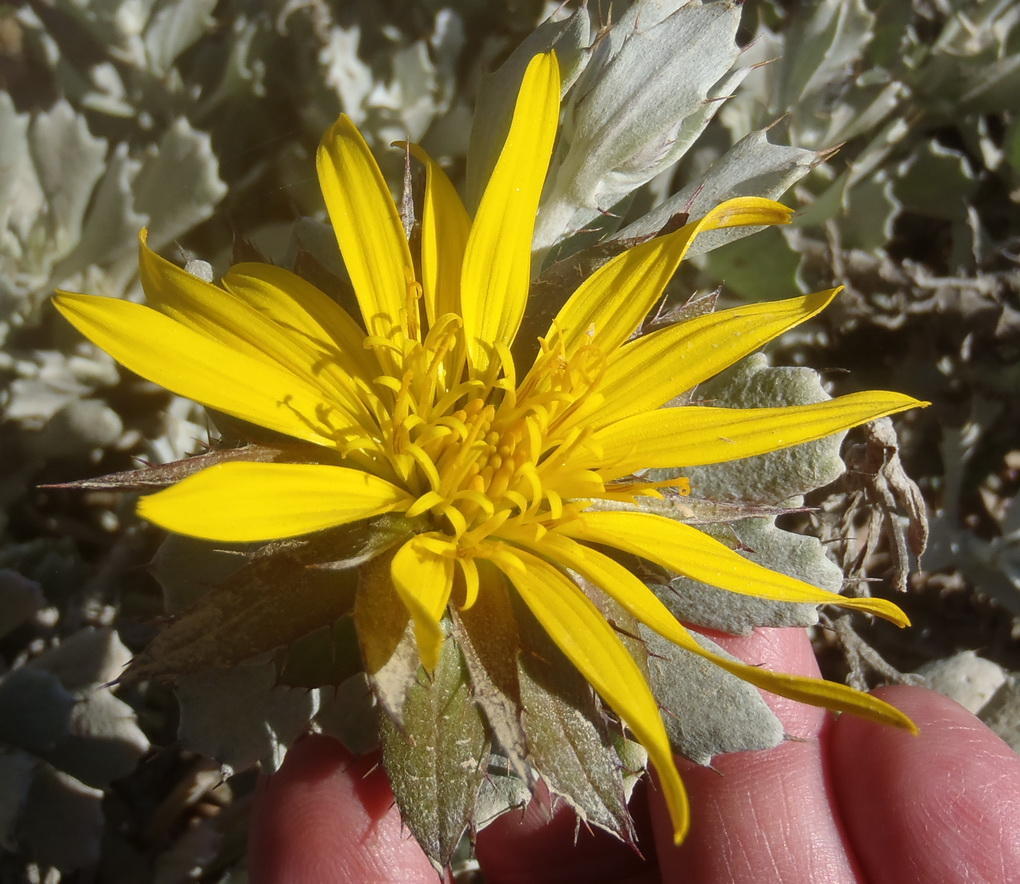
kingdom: Plantae
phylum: Tracheophyta
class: Magnoliopsida
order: Asterales
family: Asteraceae
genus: Berkheya
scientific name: Berkheya cuneata
